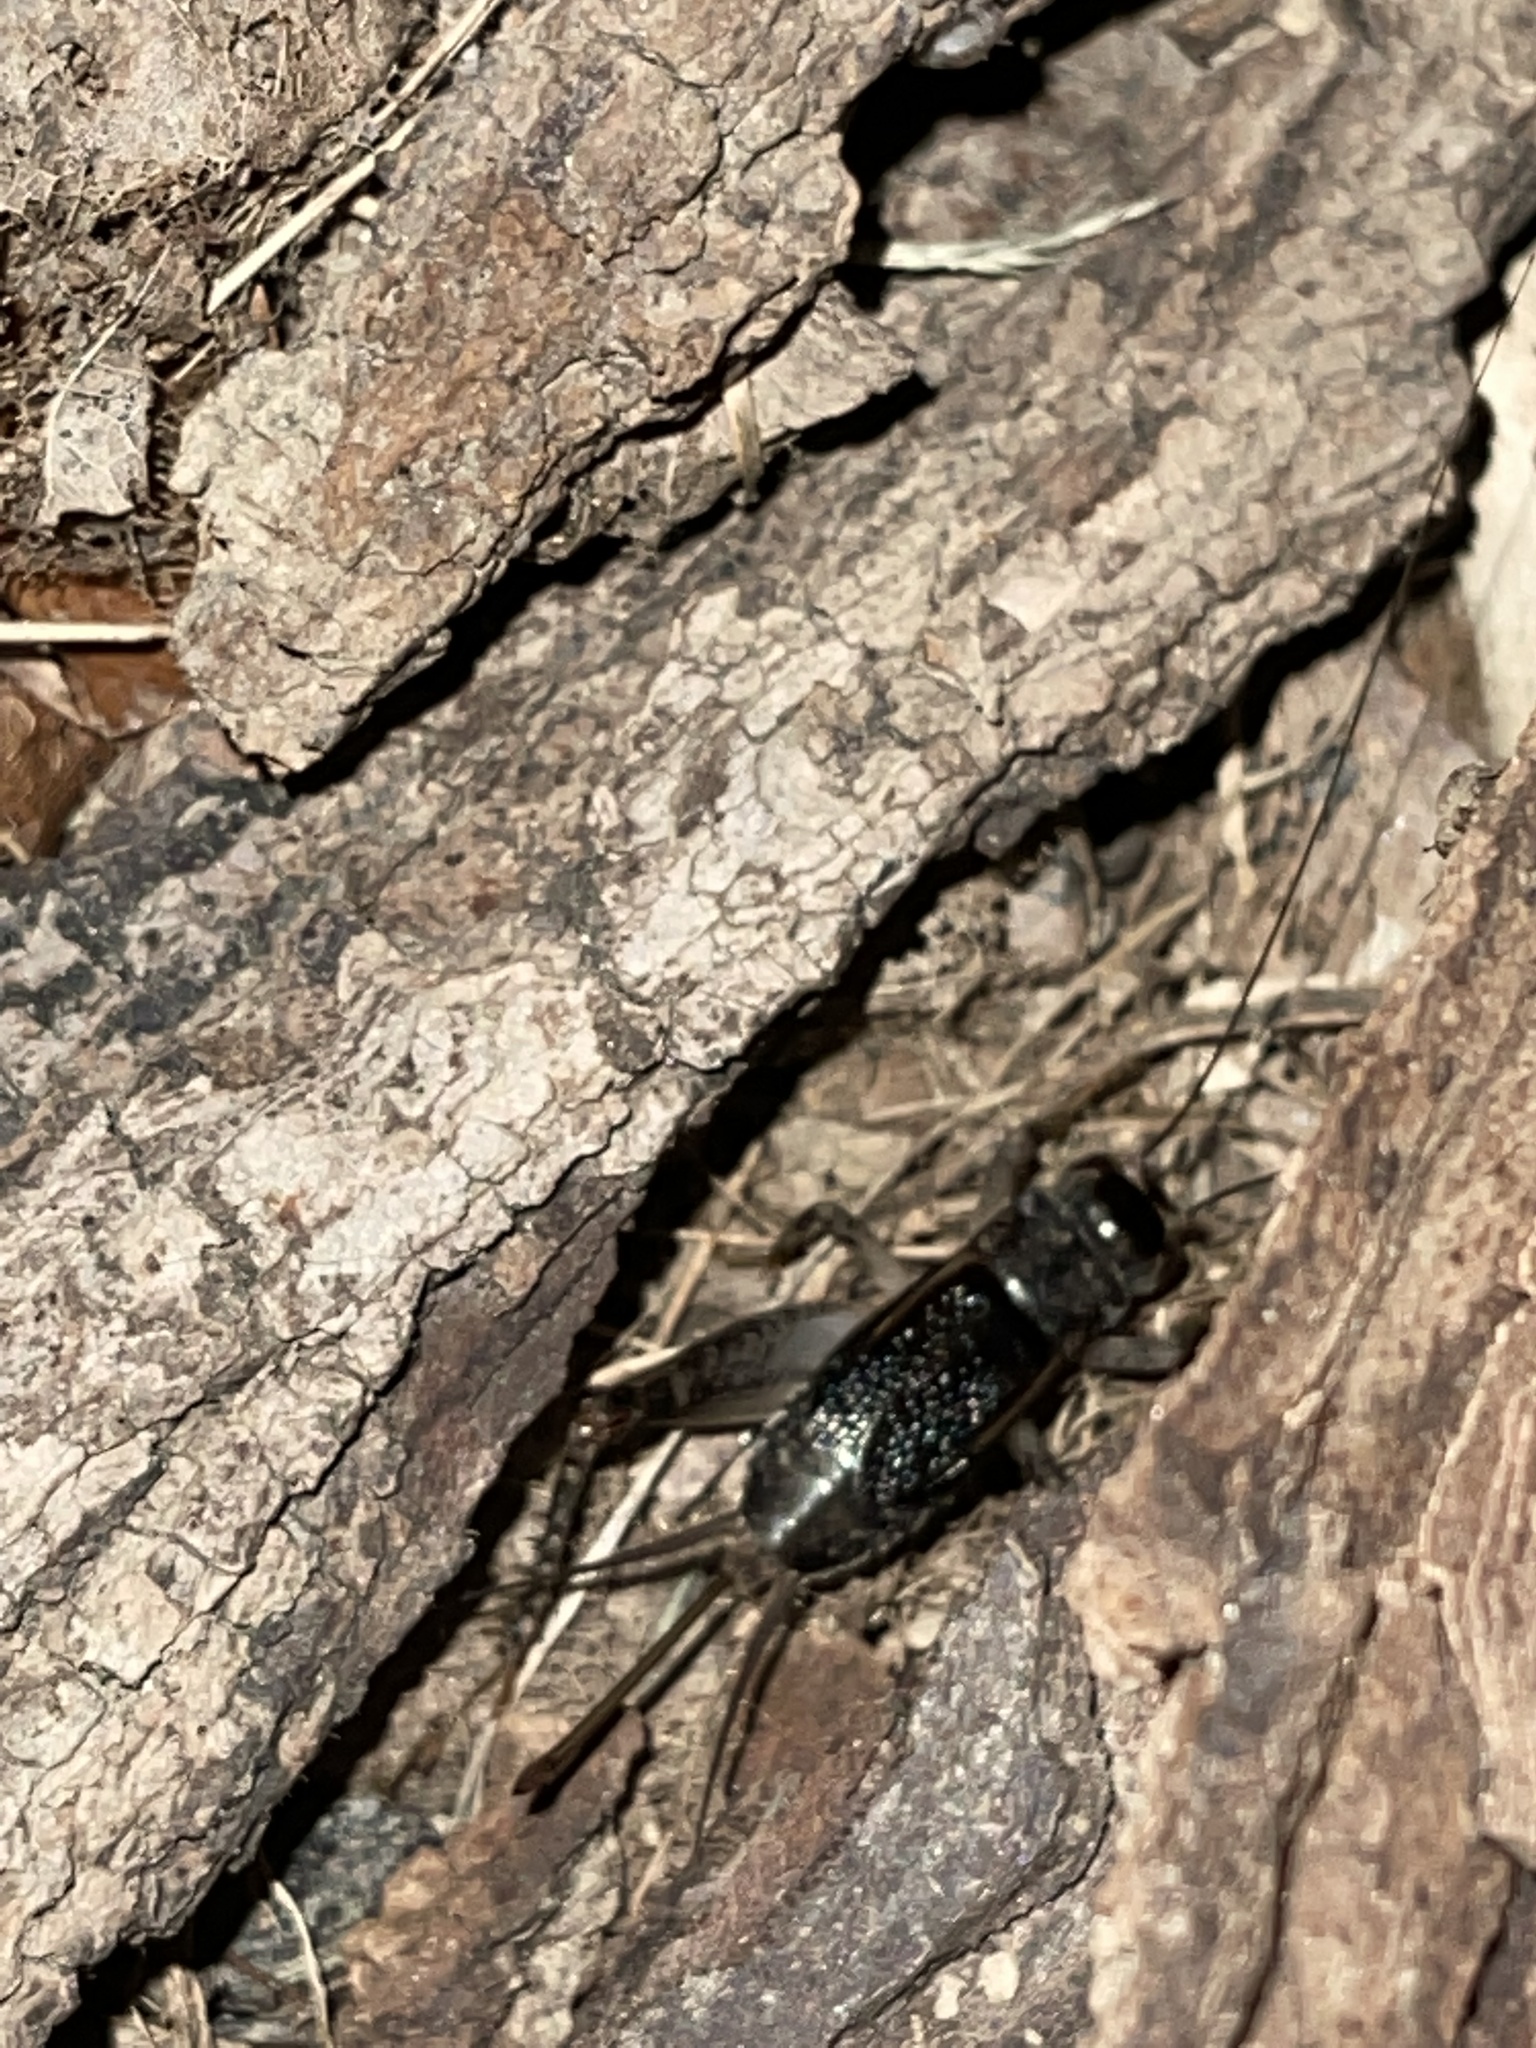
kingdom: Animalia
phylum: Arthropoda
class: Insecta
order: Orthoptera
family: Gryllidae
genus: Velarifictorus
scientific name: Velarifictorus micado
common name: Japanese burrowing cricket
